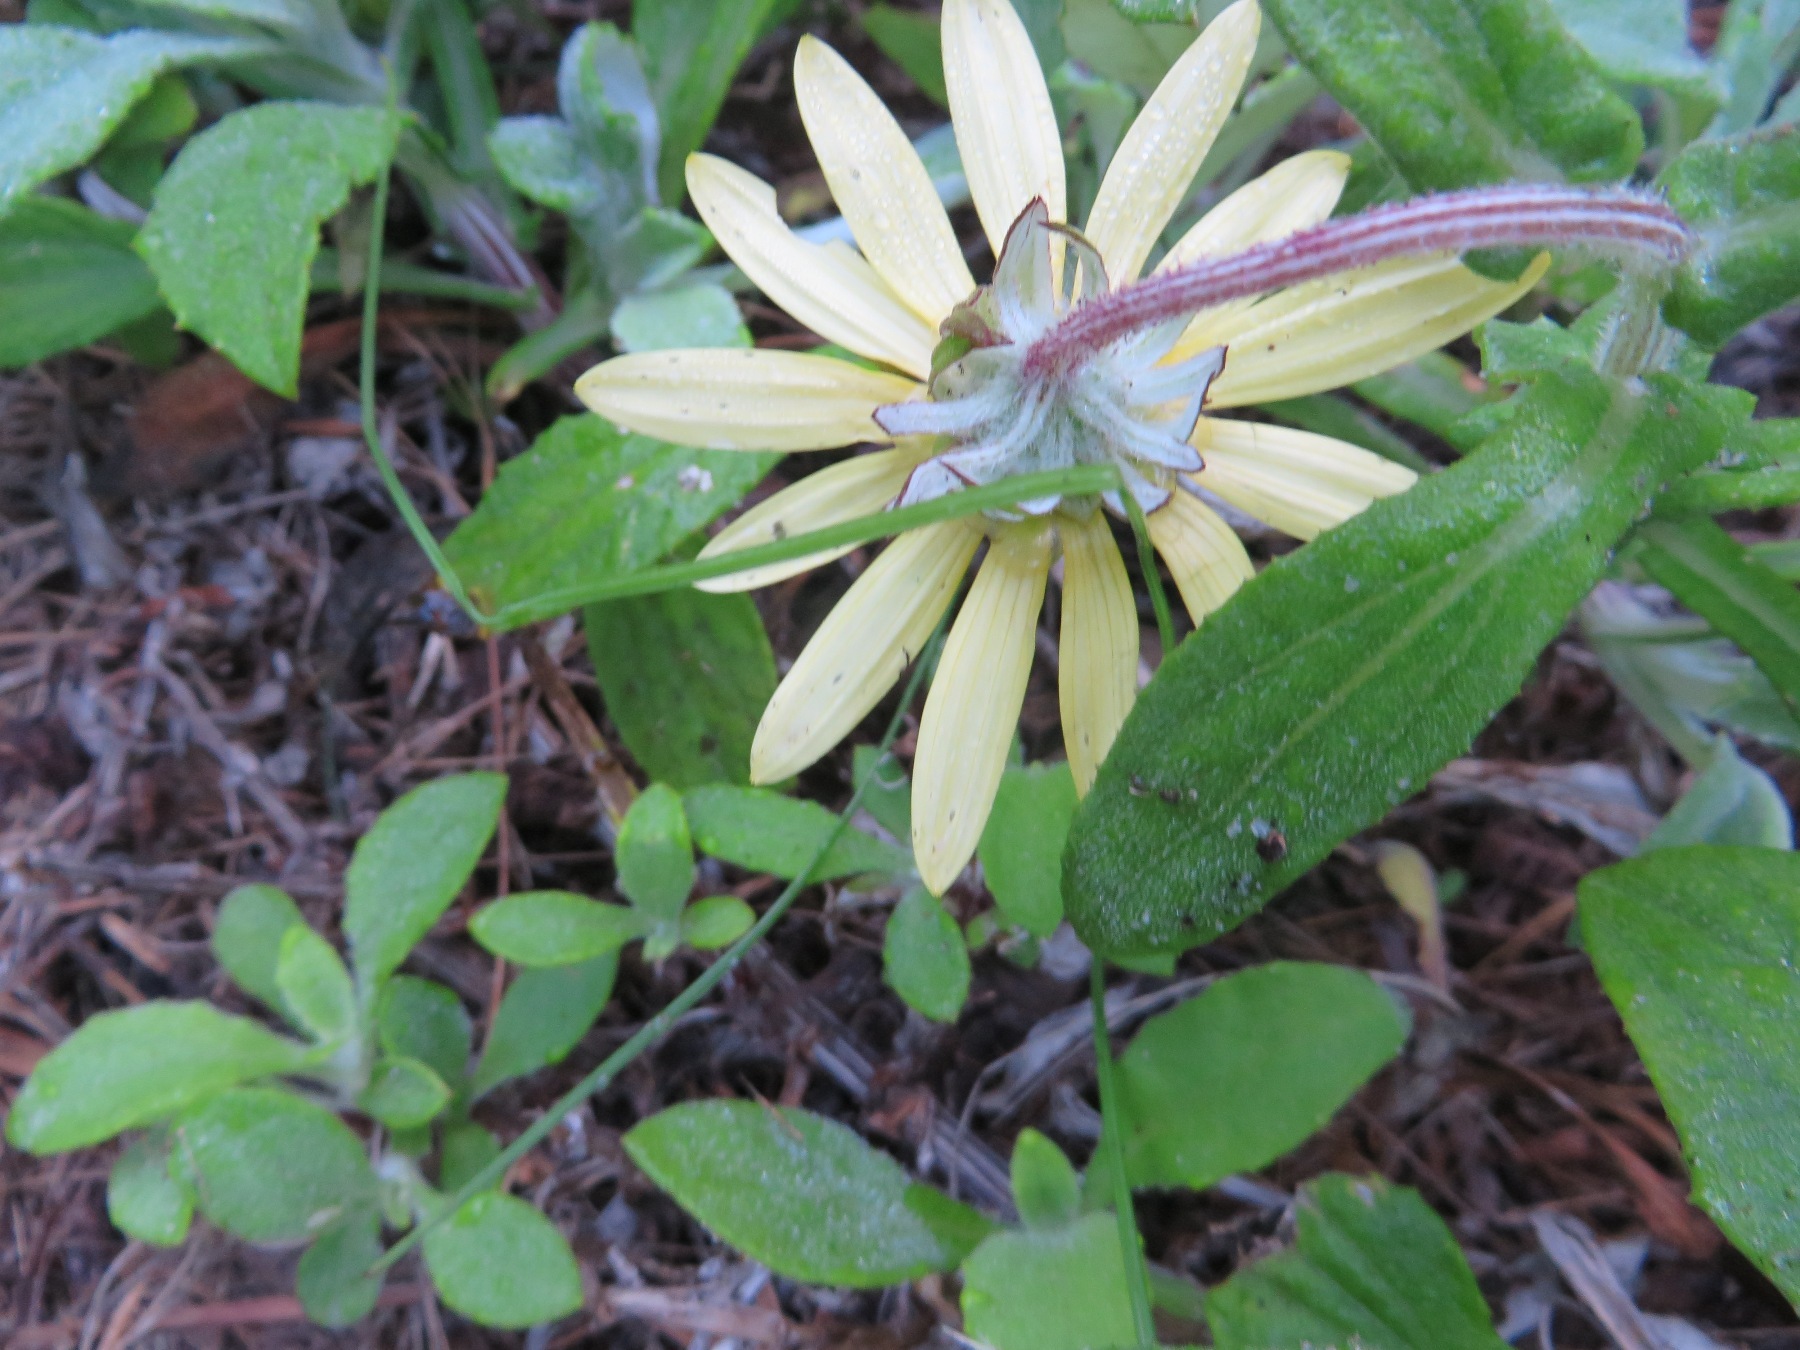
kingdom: Plantae
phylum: Tracheophyta
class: Magnoliopsida
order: Asterales
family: Asteraceae
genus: Arctotis
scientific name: Arctotis scabra
